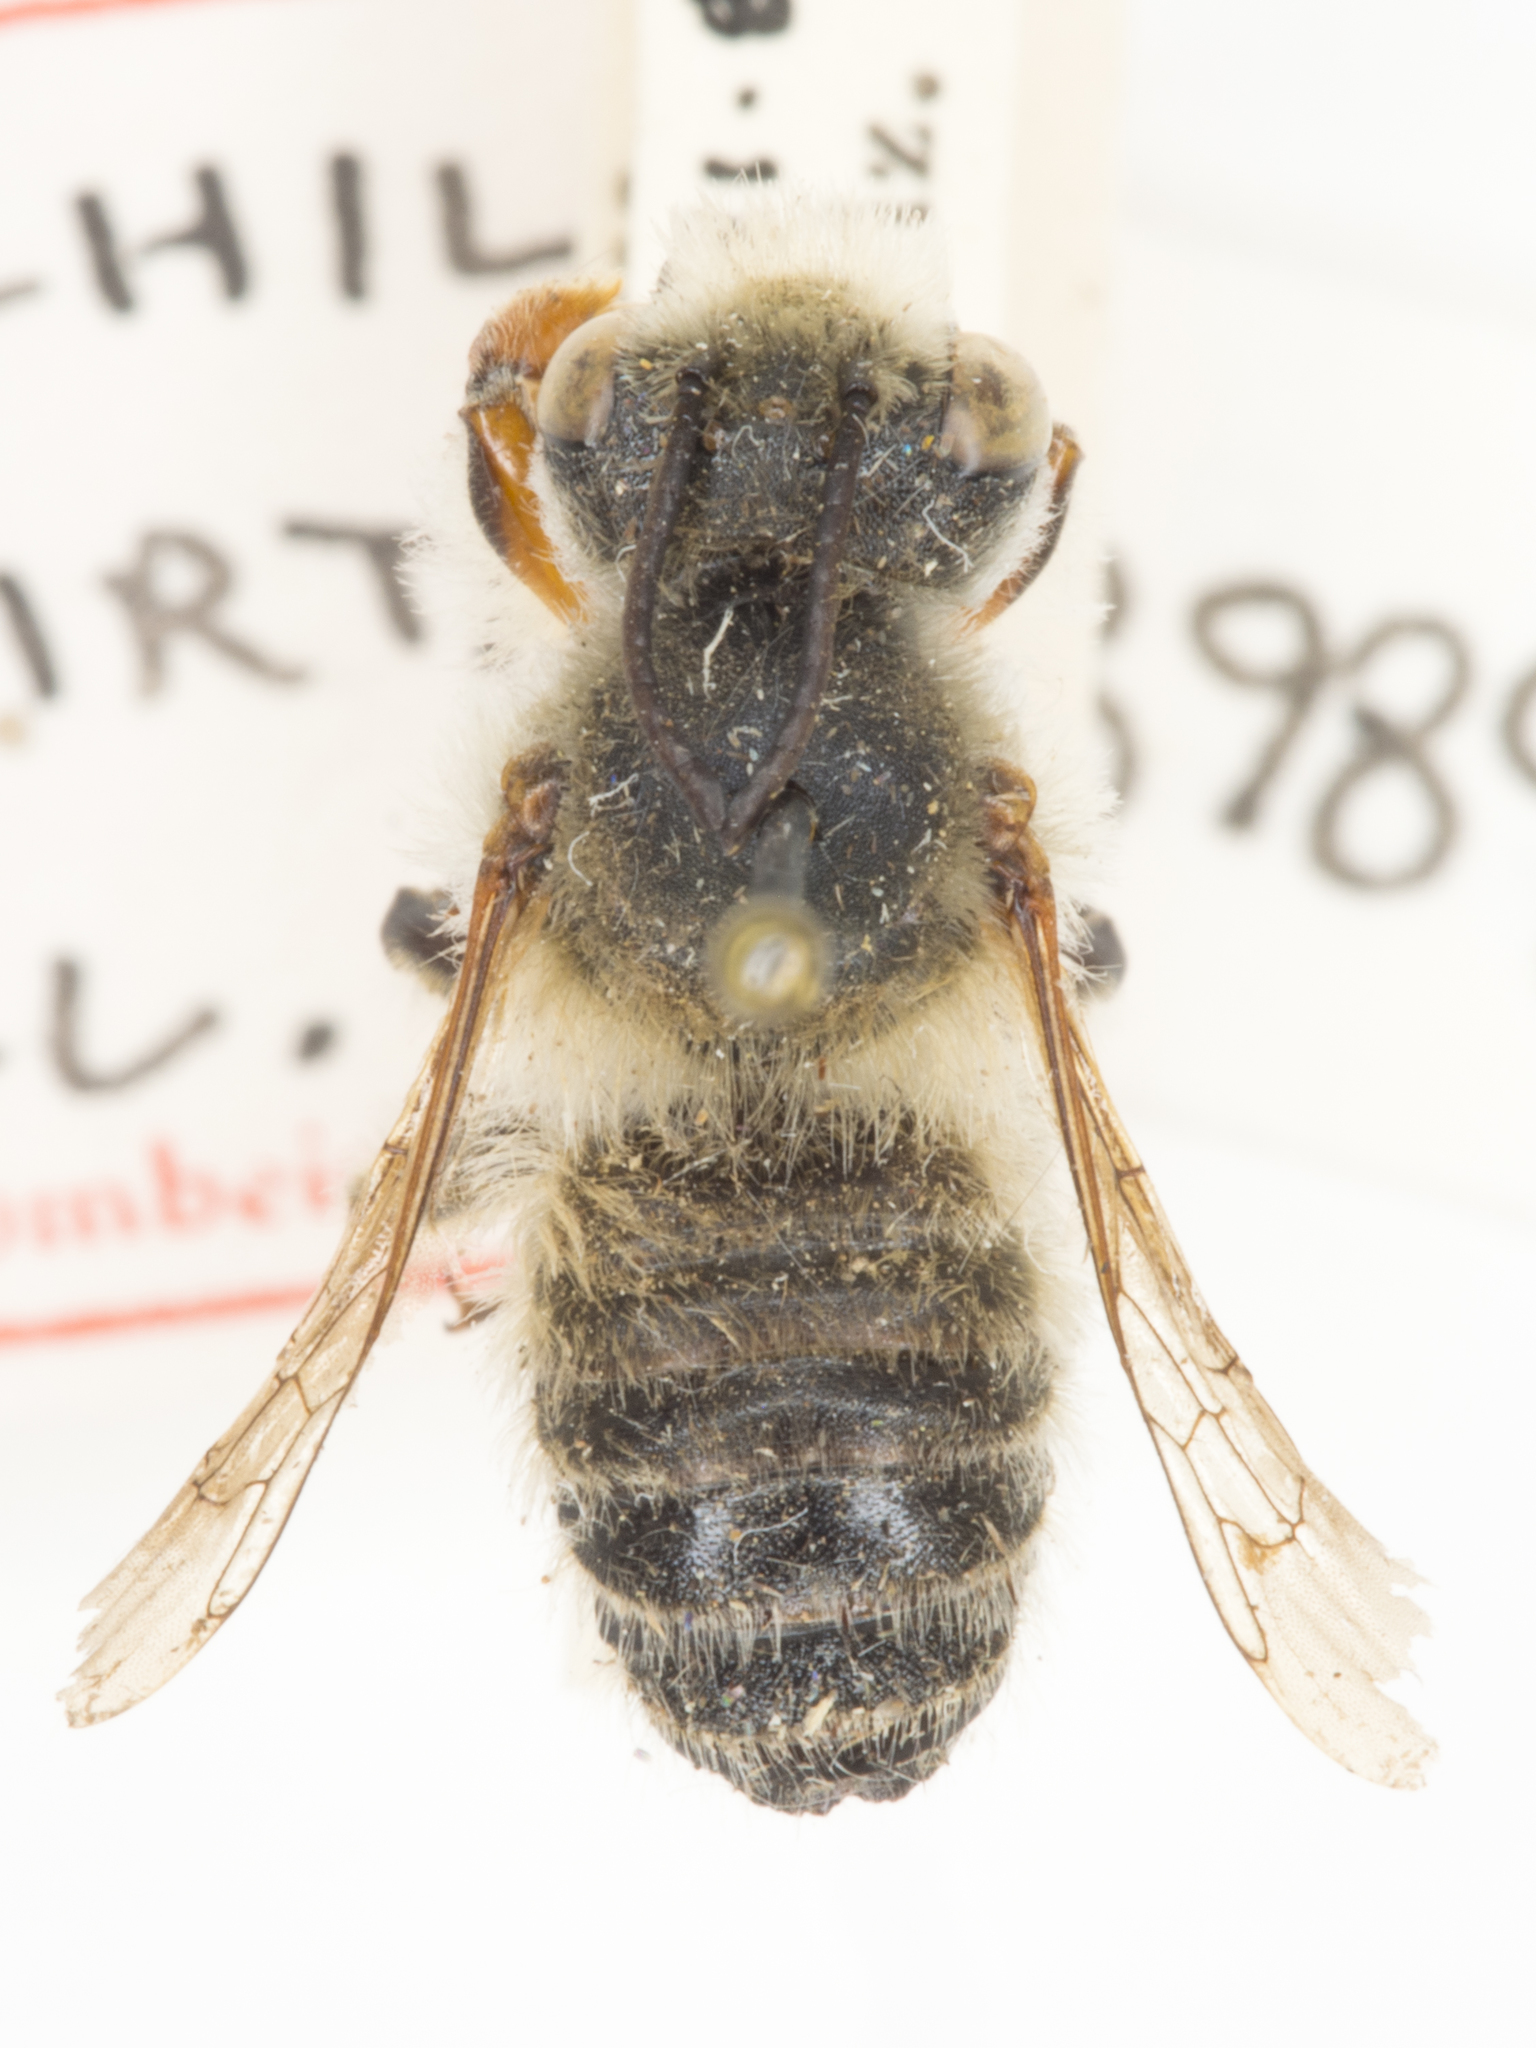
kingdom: Animalia
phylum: Arthropoda
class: Insecta
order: Hymenoptera
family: Megachilidae
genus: Megachile
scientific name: Megachile perihirta
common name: Western leafcutter
